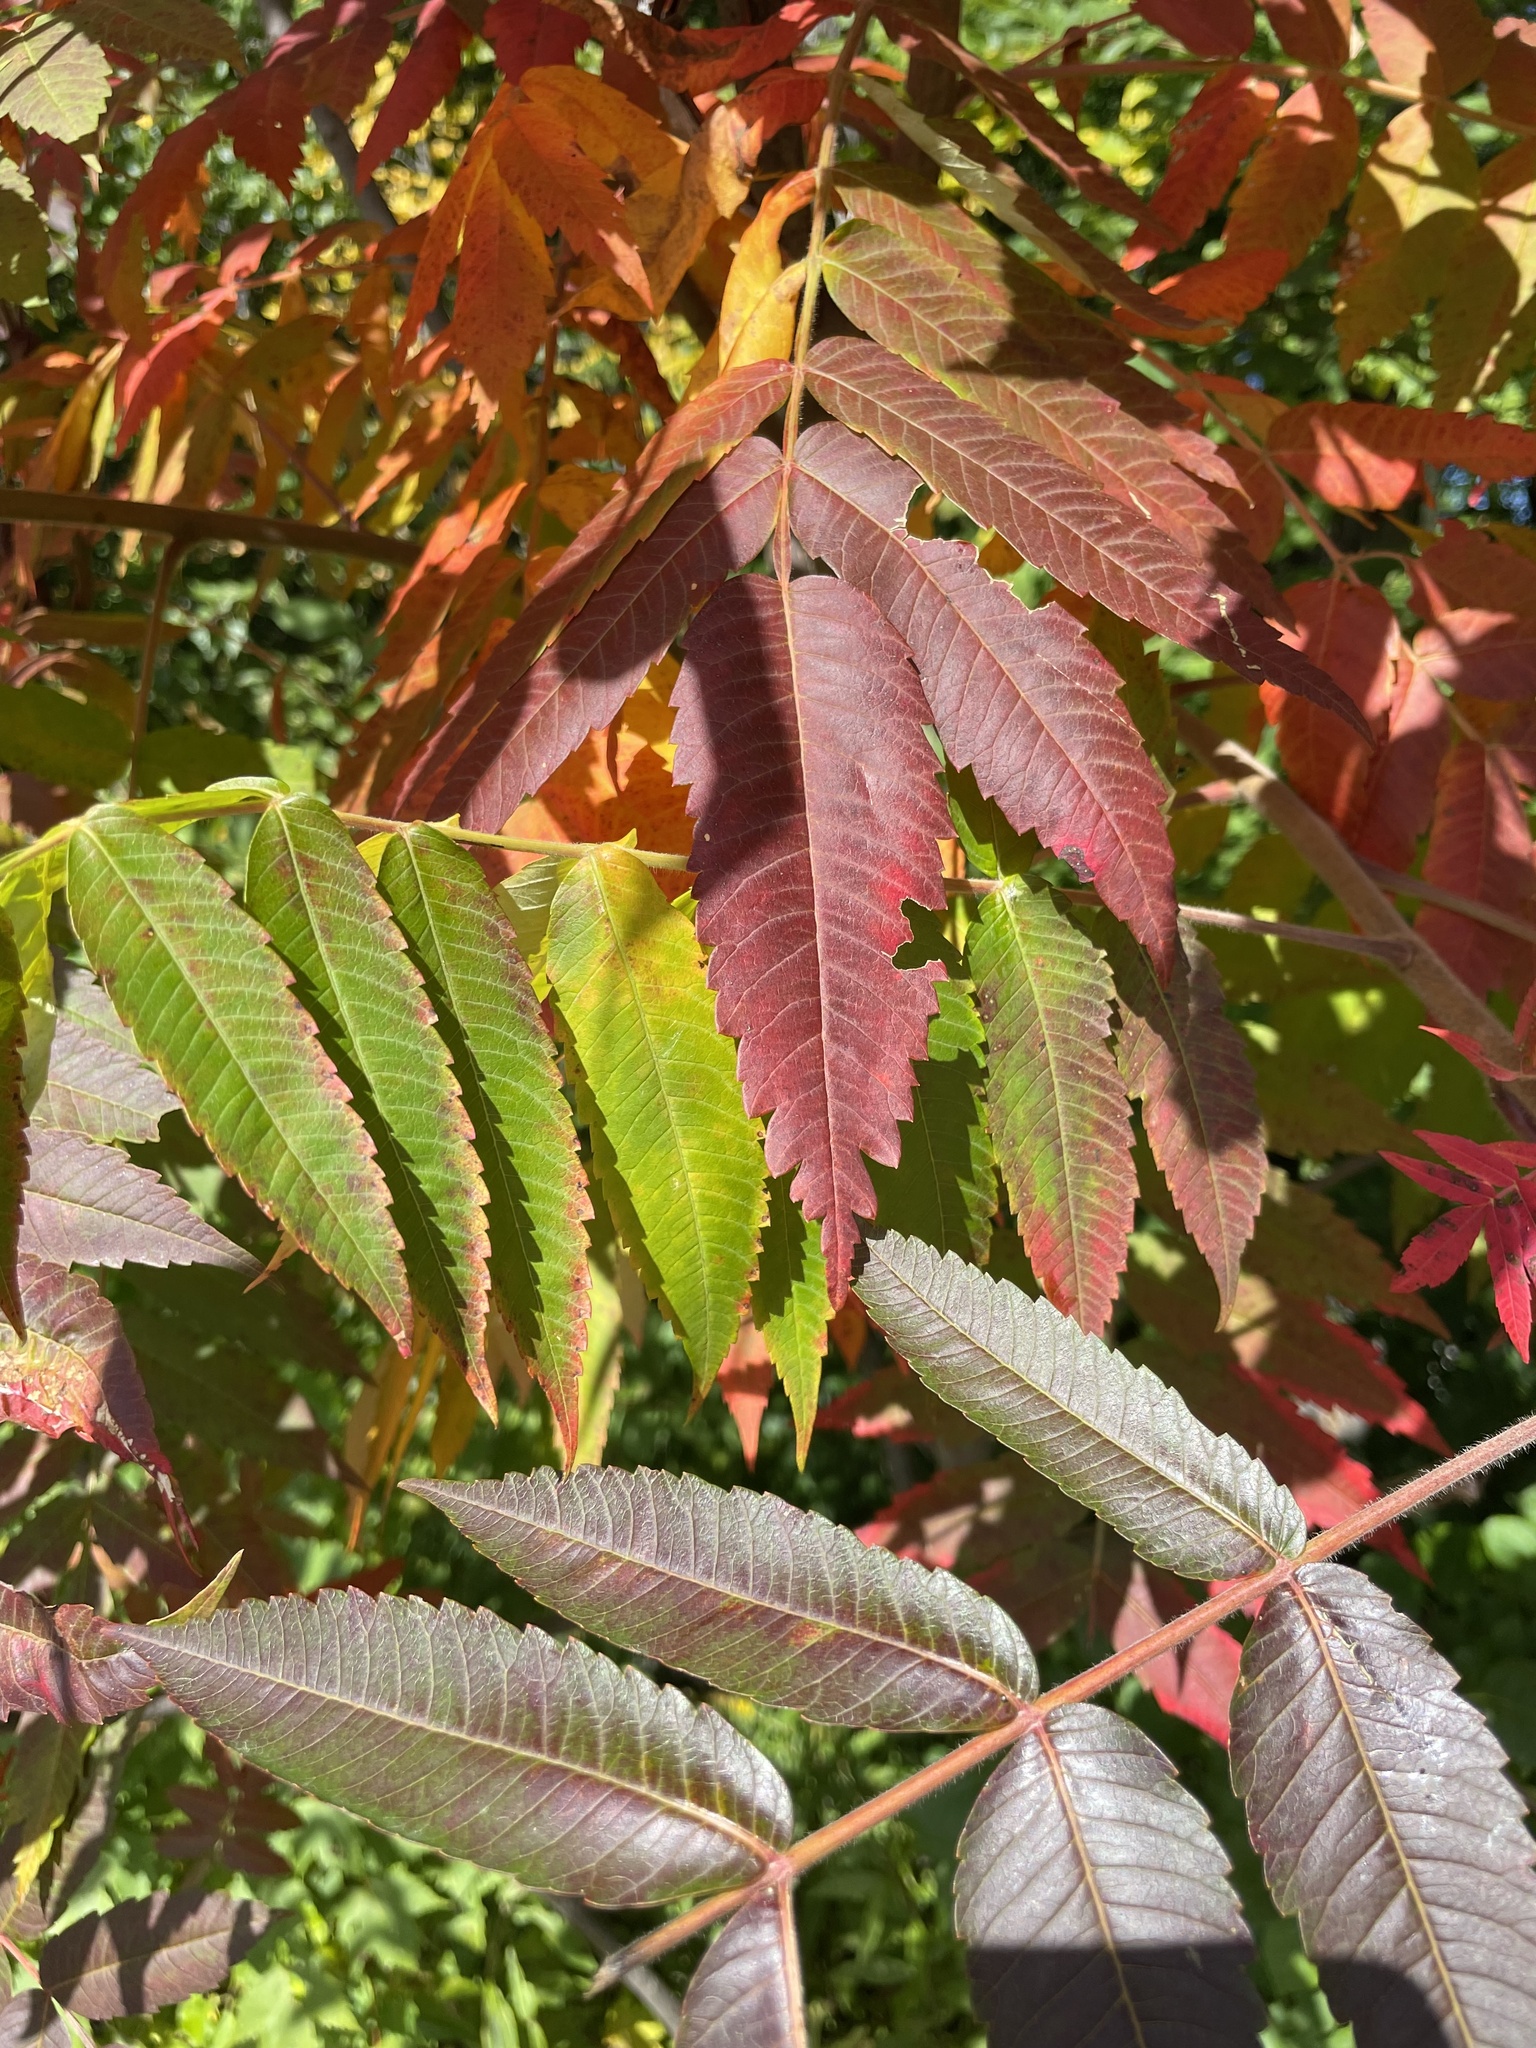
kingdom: Plantae
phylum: Tracheophyta
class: Magnoliopsida
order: Sapindales
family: Anacardiaceae
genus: Rhus
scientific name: Rhus typhina
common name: Staghorn sumac
